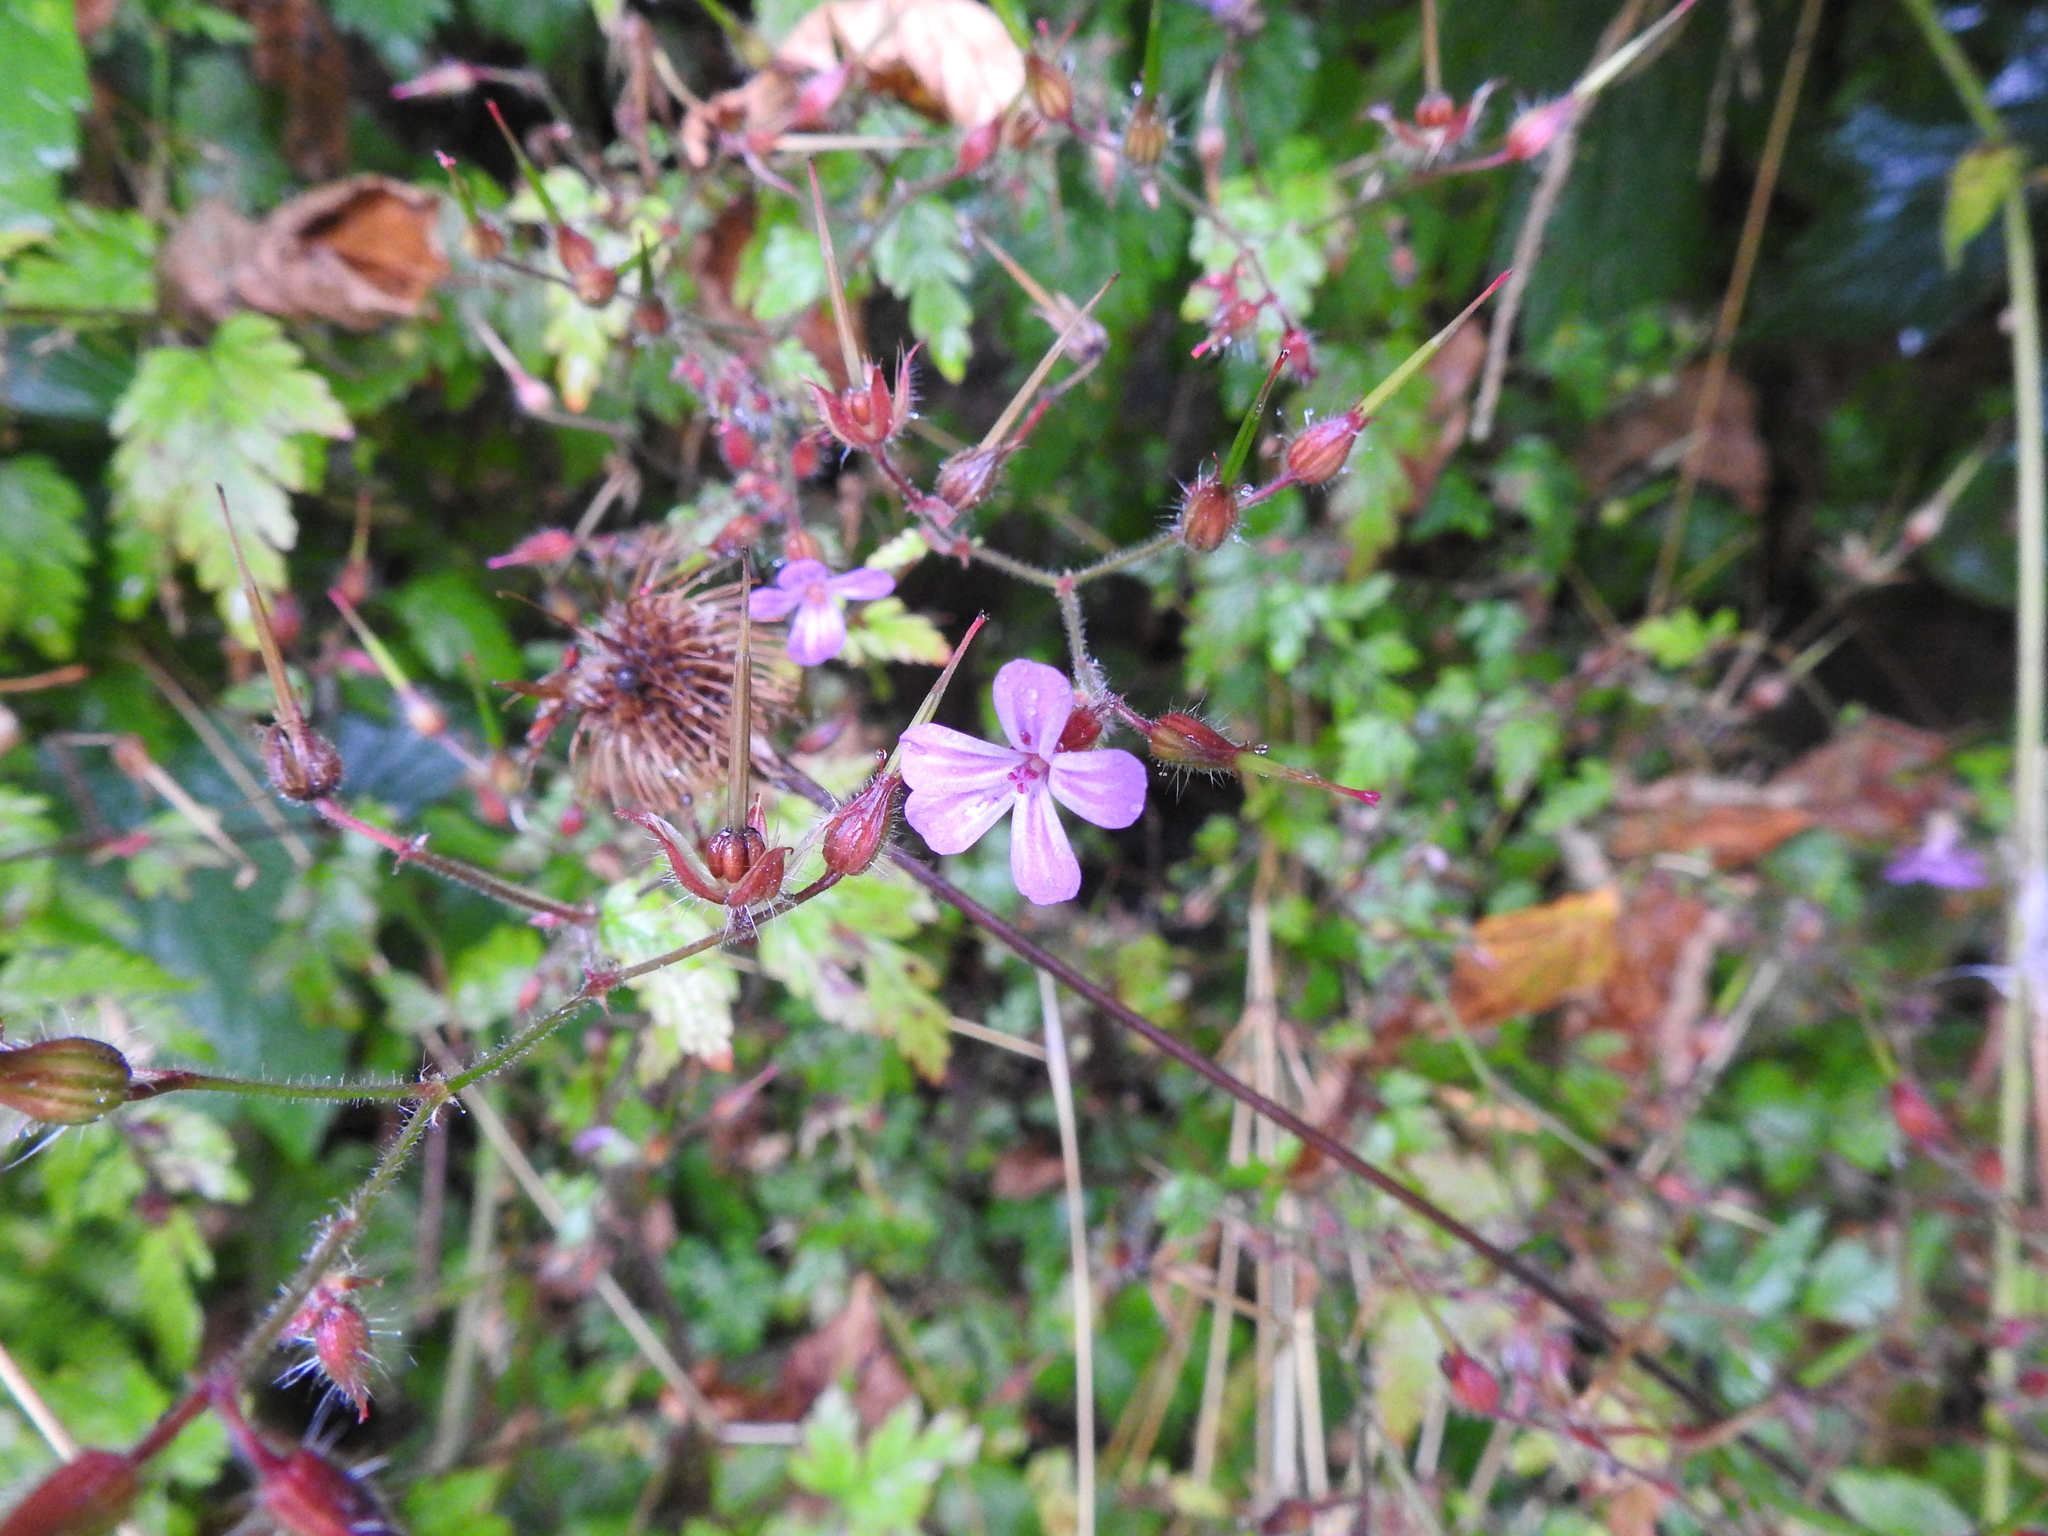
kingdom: Plantae
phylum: Tracheophyta
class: Magnoliopsida
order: Geraniales
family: Geraniaceae
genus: Geranium
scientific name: Geranium robertianum
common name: Herb-robert
